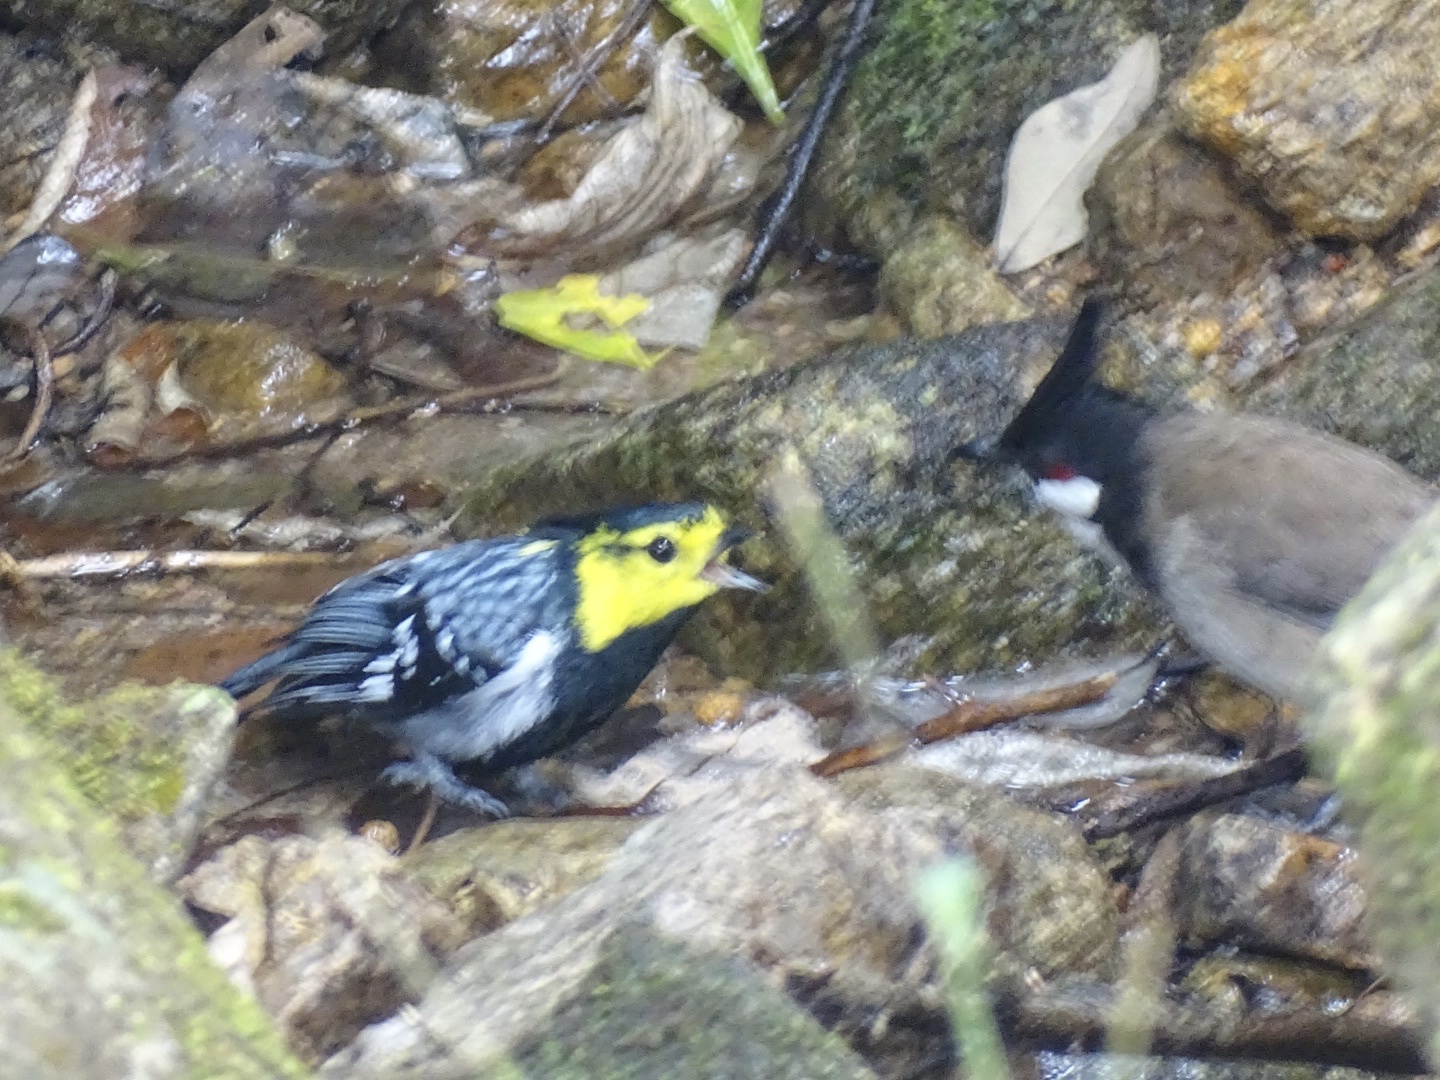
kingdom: Animalia
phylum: Chordata
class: Aves
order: Passeriformes
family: Paridae
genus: Parus
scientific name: Parus spilonotus
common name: Yellow-cheeked tit
